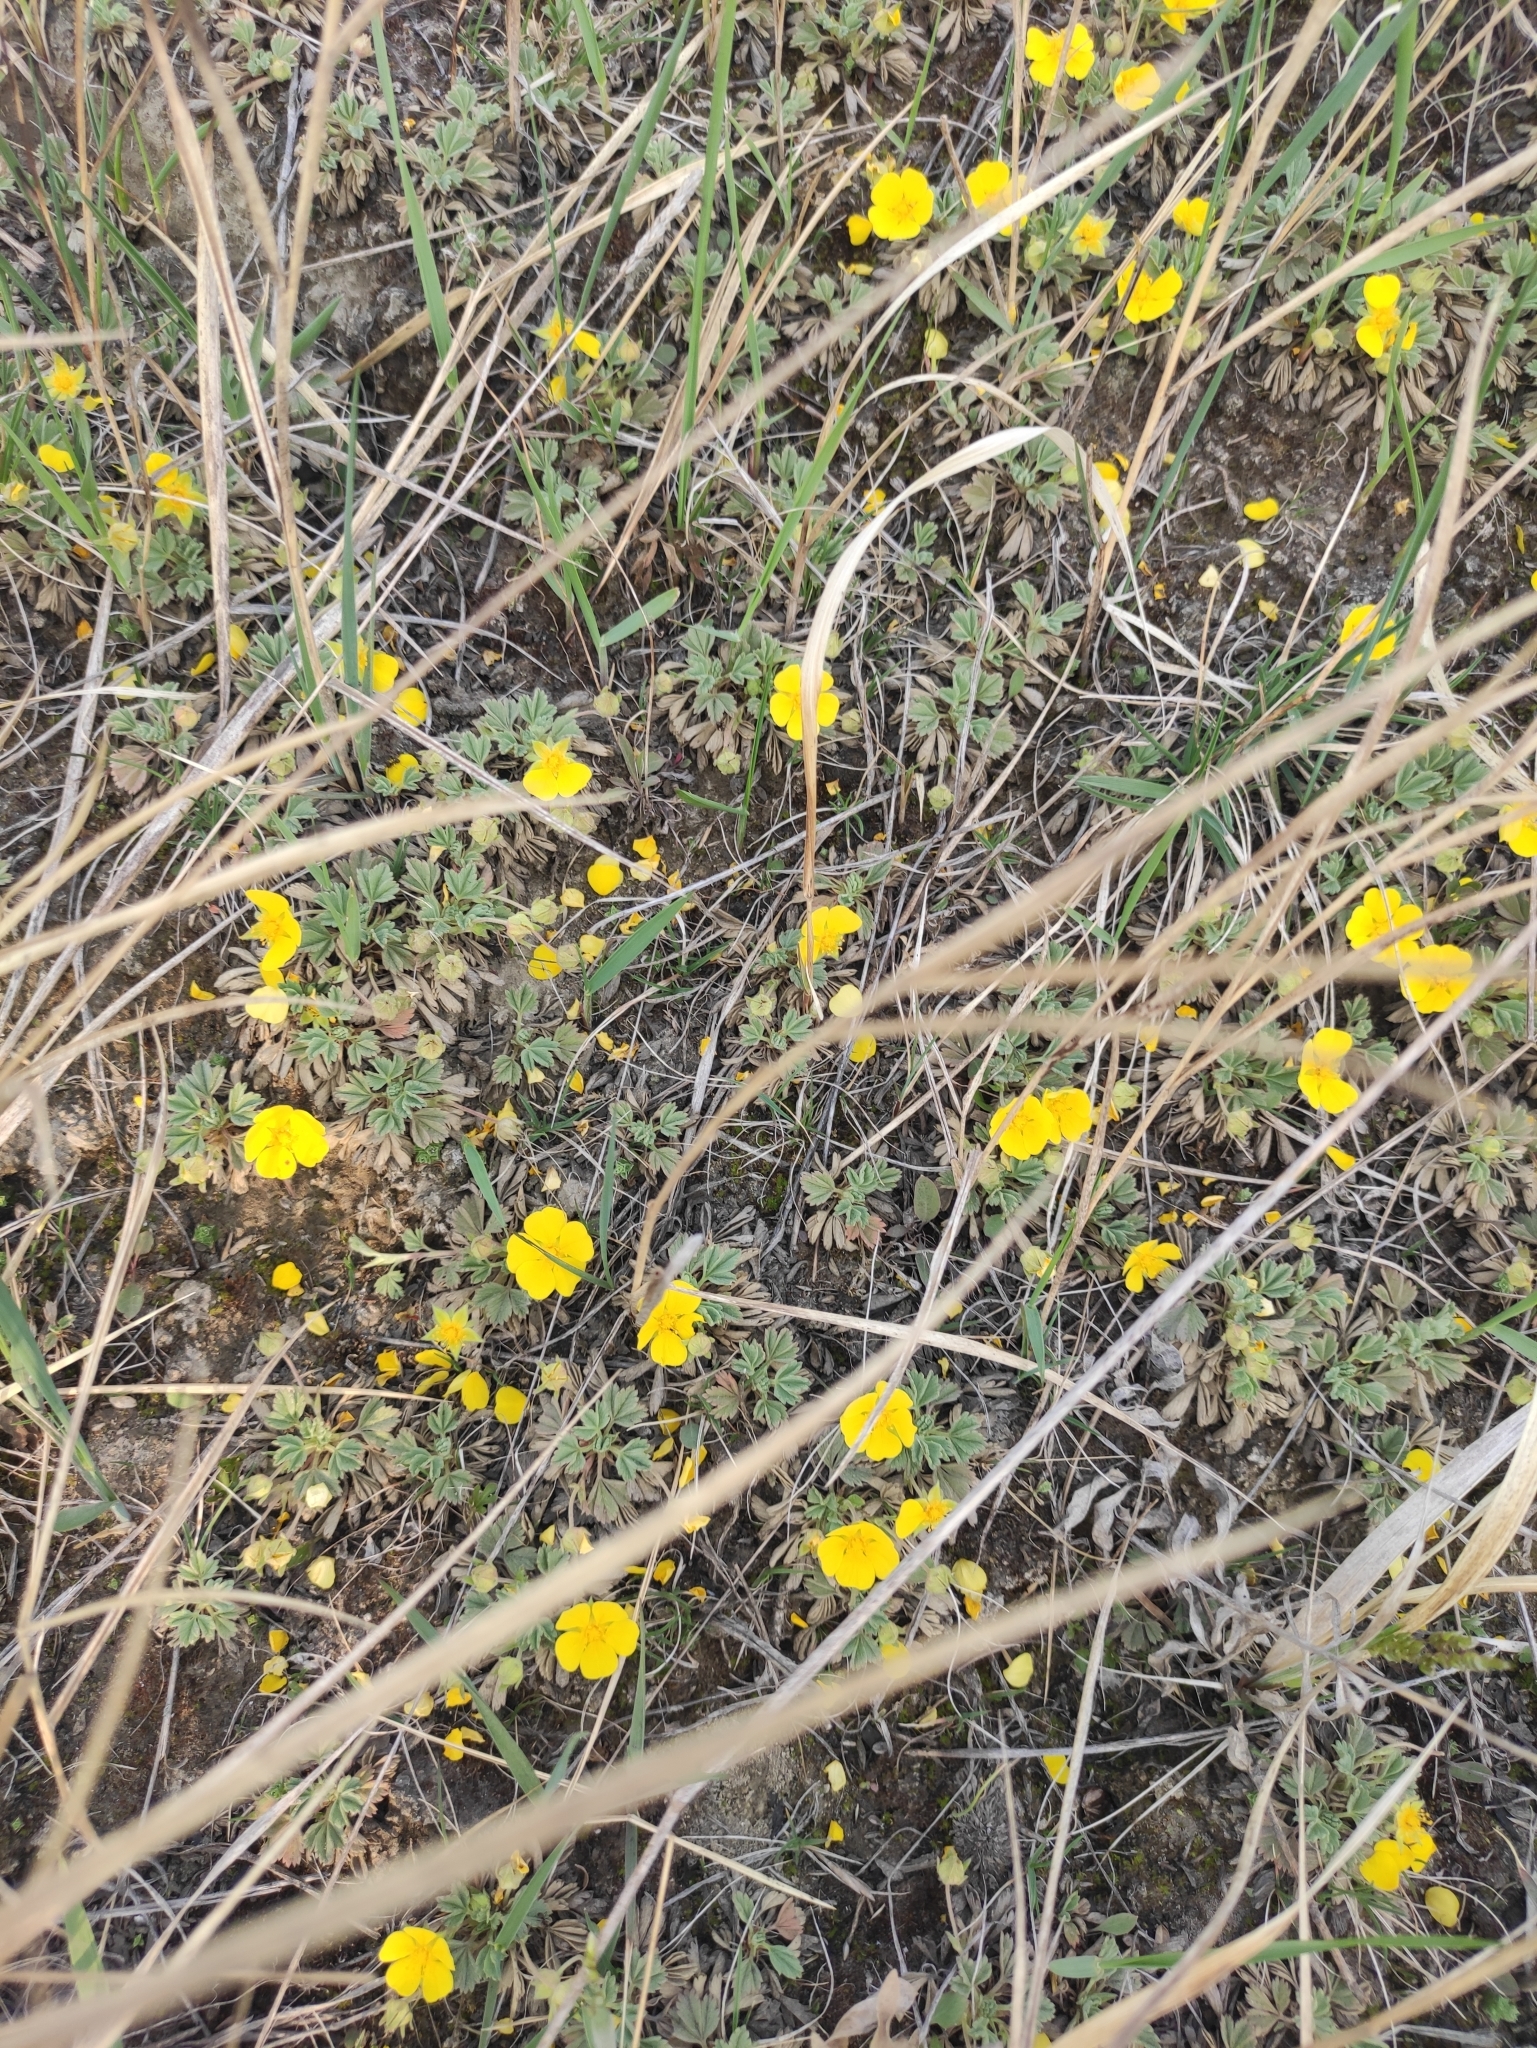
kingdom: Plantae
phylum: Tracheophyta
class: Magnoliopsida
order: Rosales
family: Rosaceae
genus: Potentilla
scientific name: Potentilla acaulis
